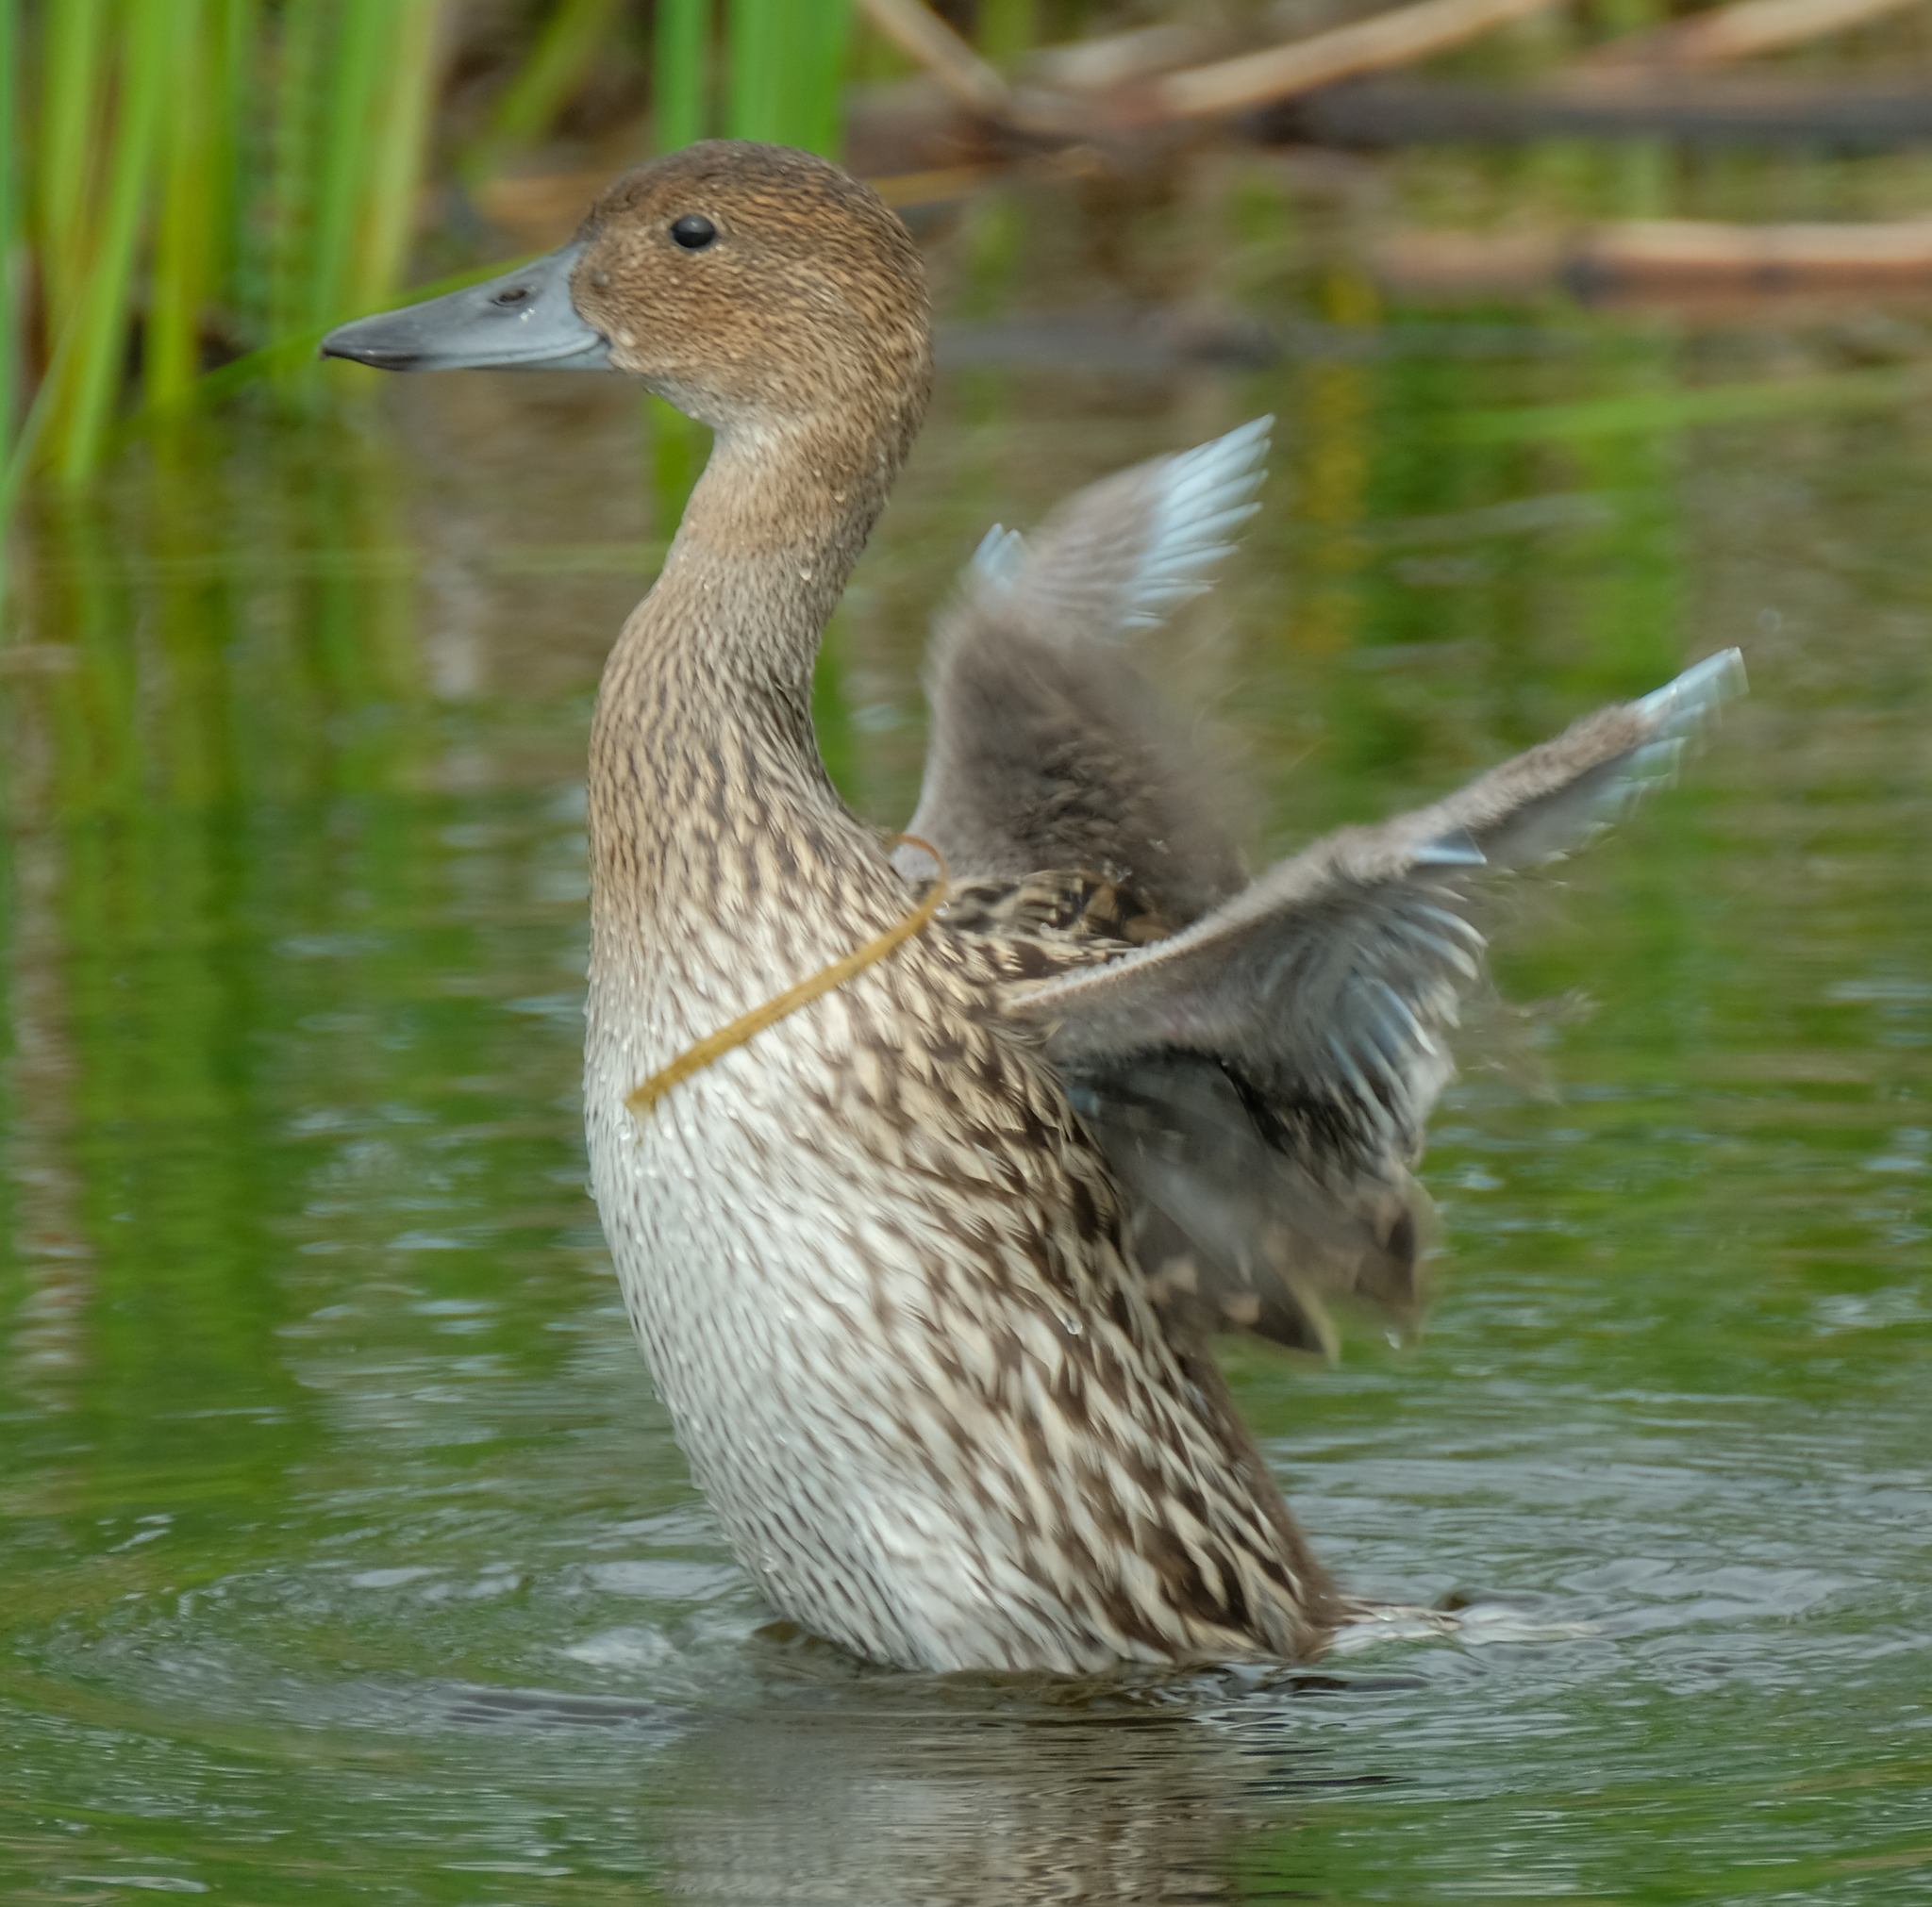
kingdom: Animalia
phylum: Chordata
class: Aves
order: Anseriformes
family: Anatidae
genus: Anas
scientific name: Anas acuta
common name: Northern pintail
